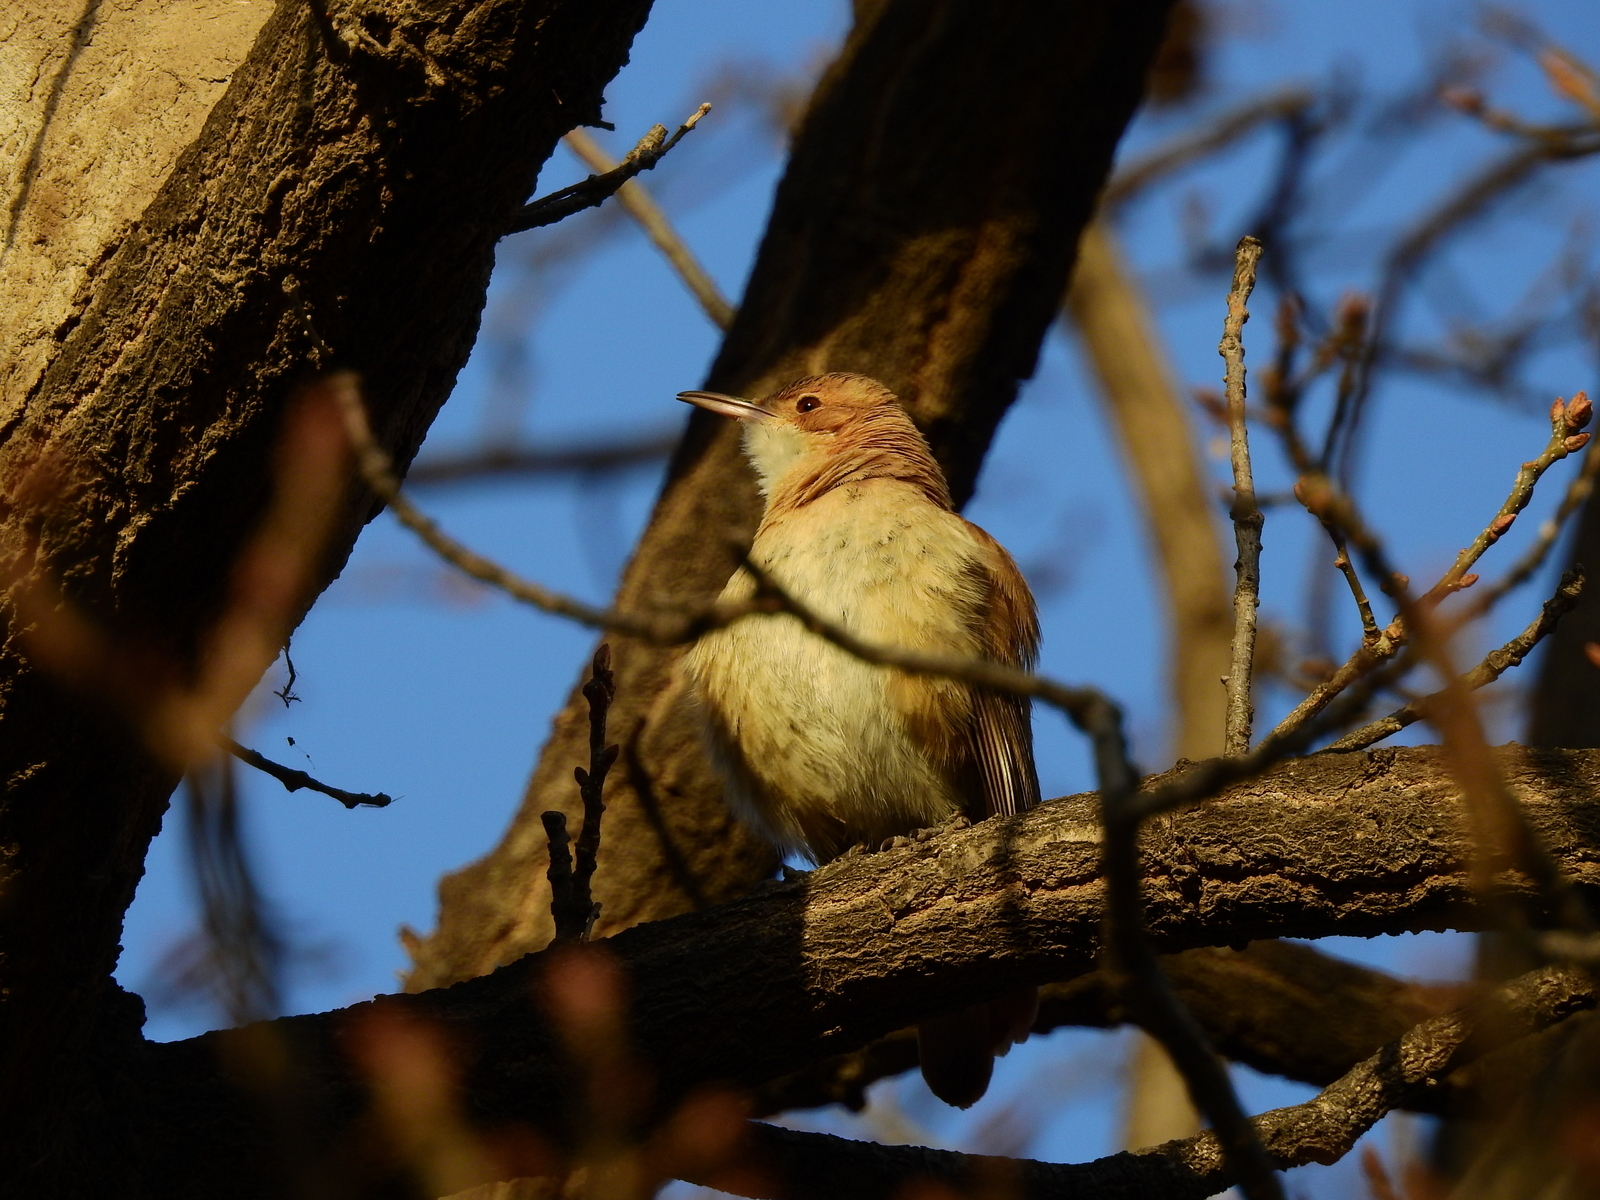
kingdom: Animalia
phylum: Chordata
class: Aves
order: Passeriformes
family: Furnariidae
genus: Furnarius
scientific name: Furnarius rufus
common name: Rufous hornero
